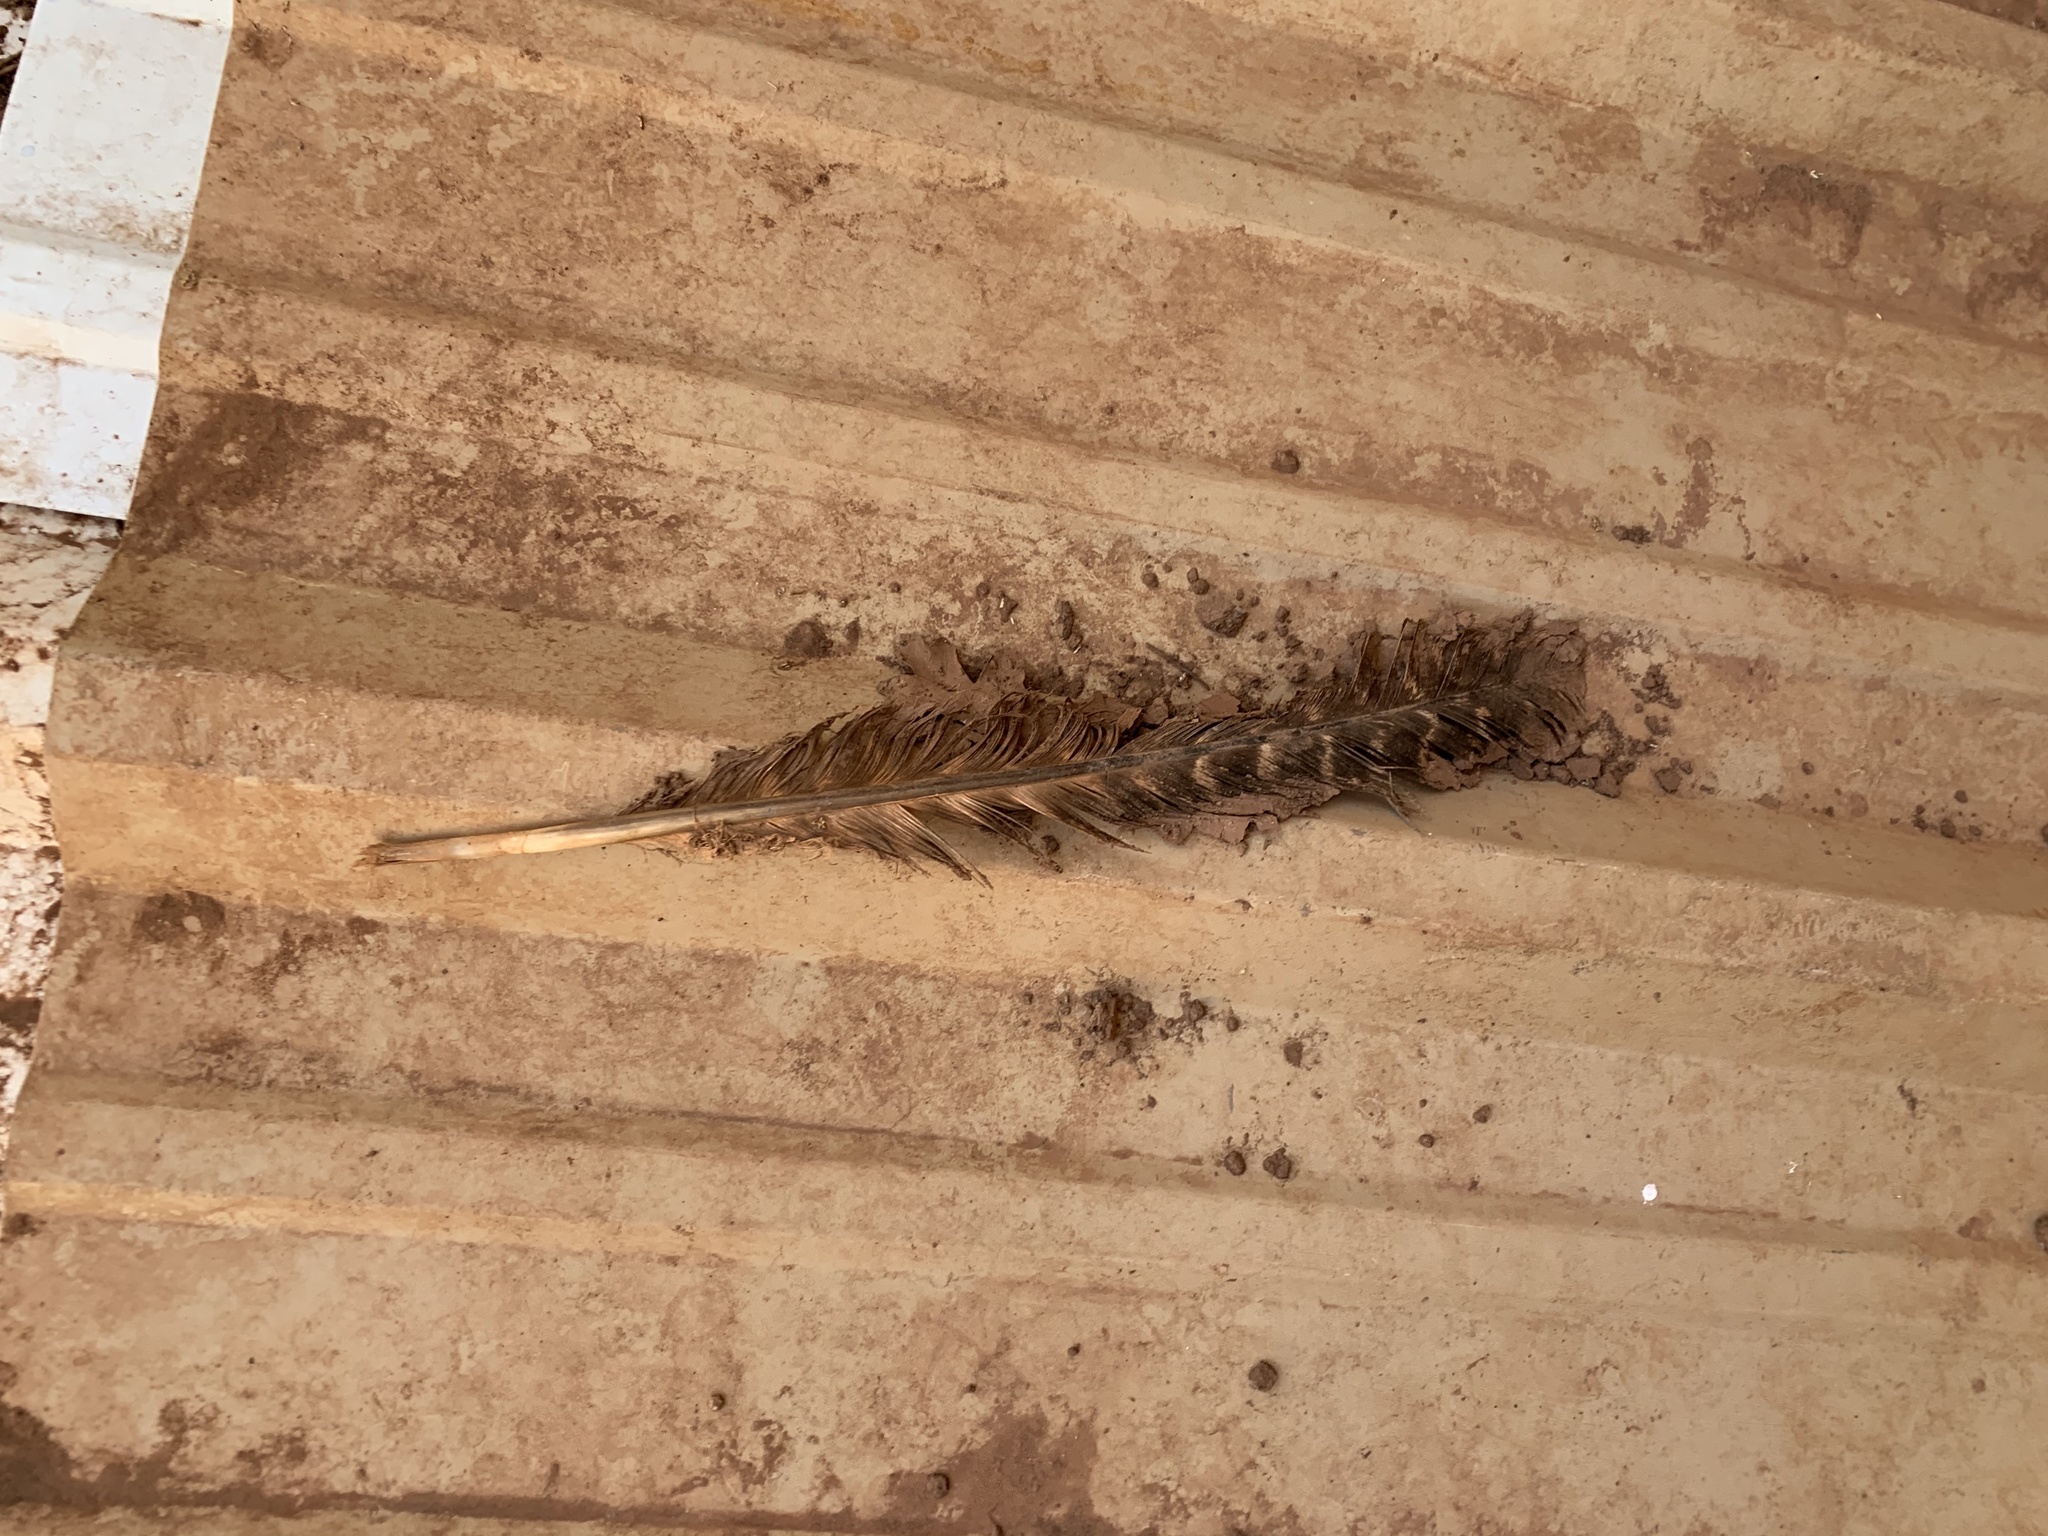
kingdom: Animalia
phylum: Chordata
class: Aves
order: Galliformes
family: Phasianidae
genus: Meleagris
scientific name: Meleagris gallopavo
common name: Wild turkey
